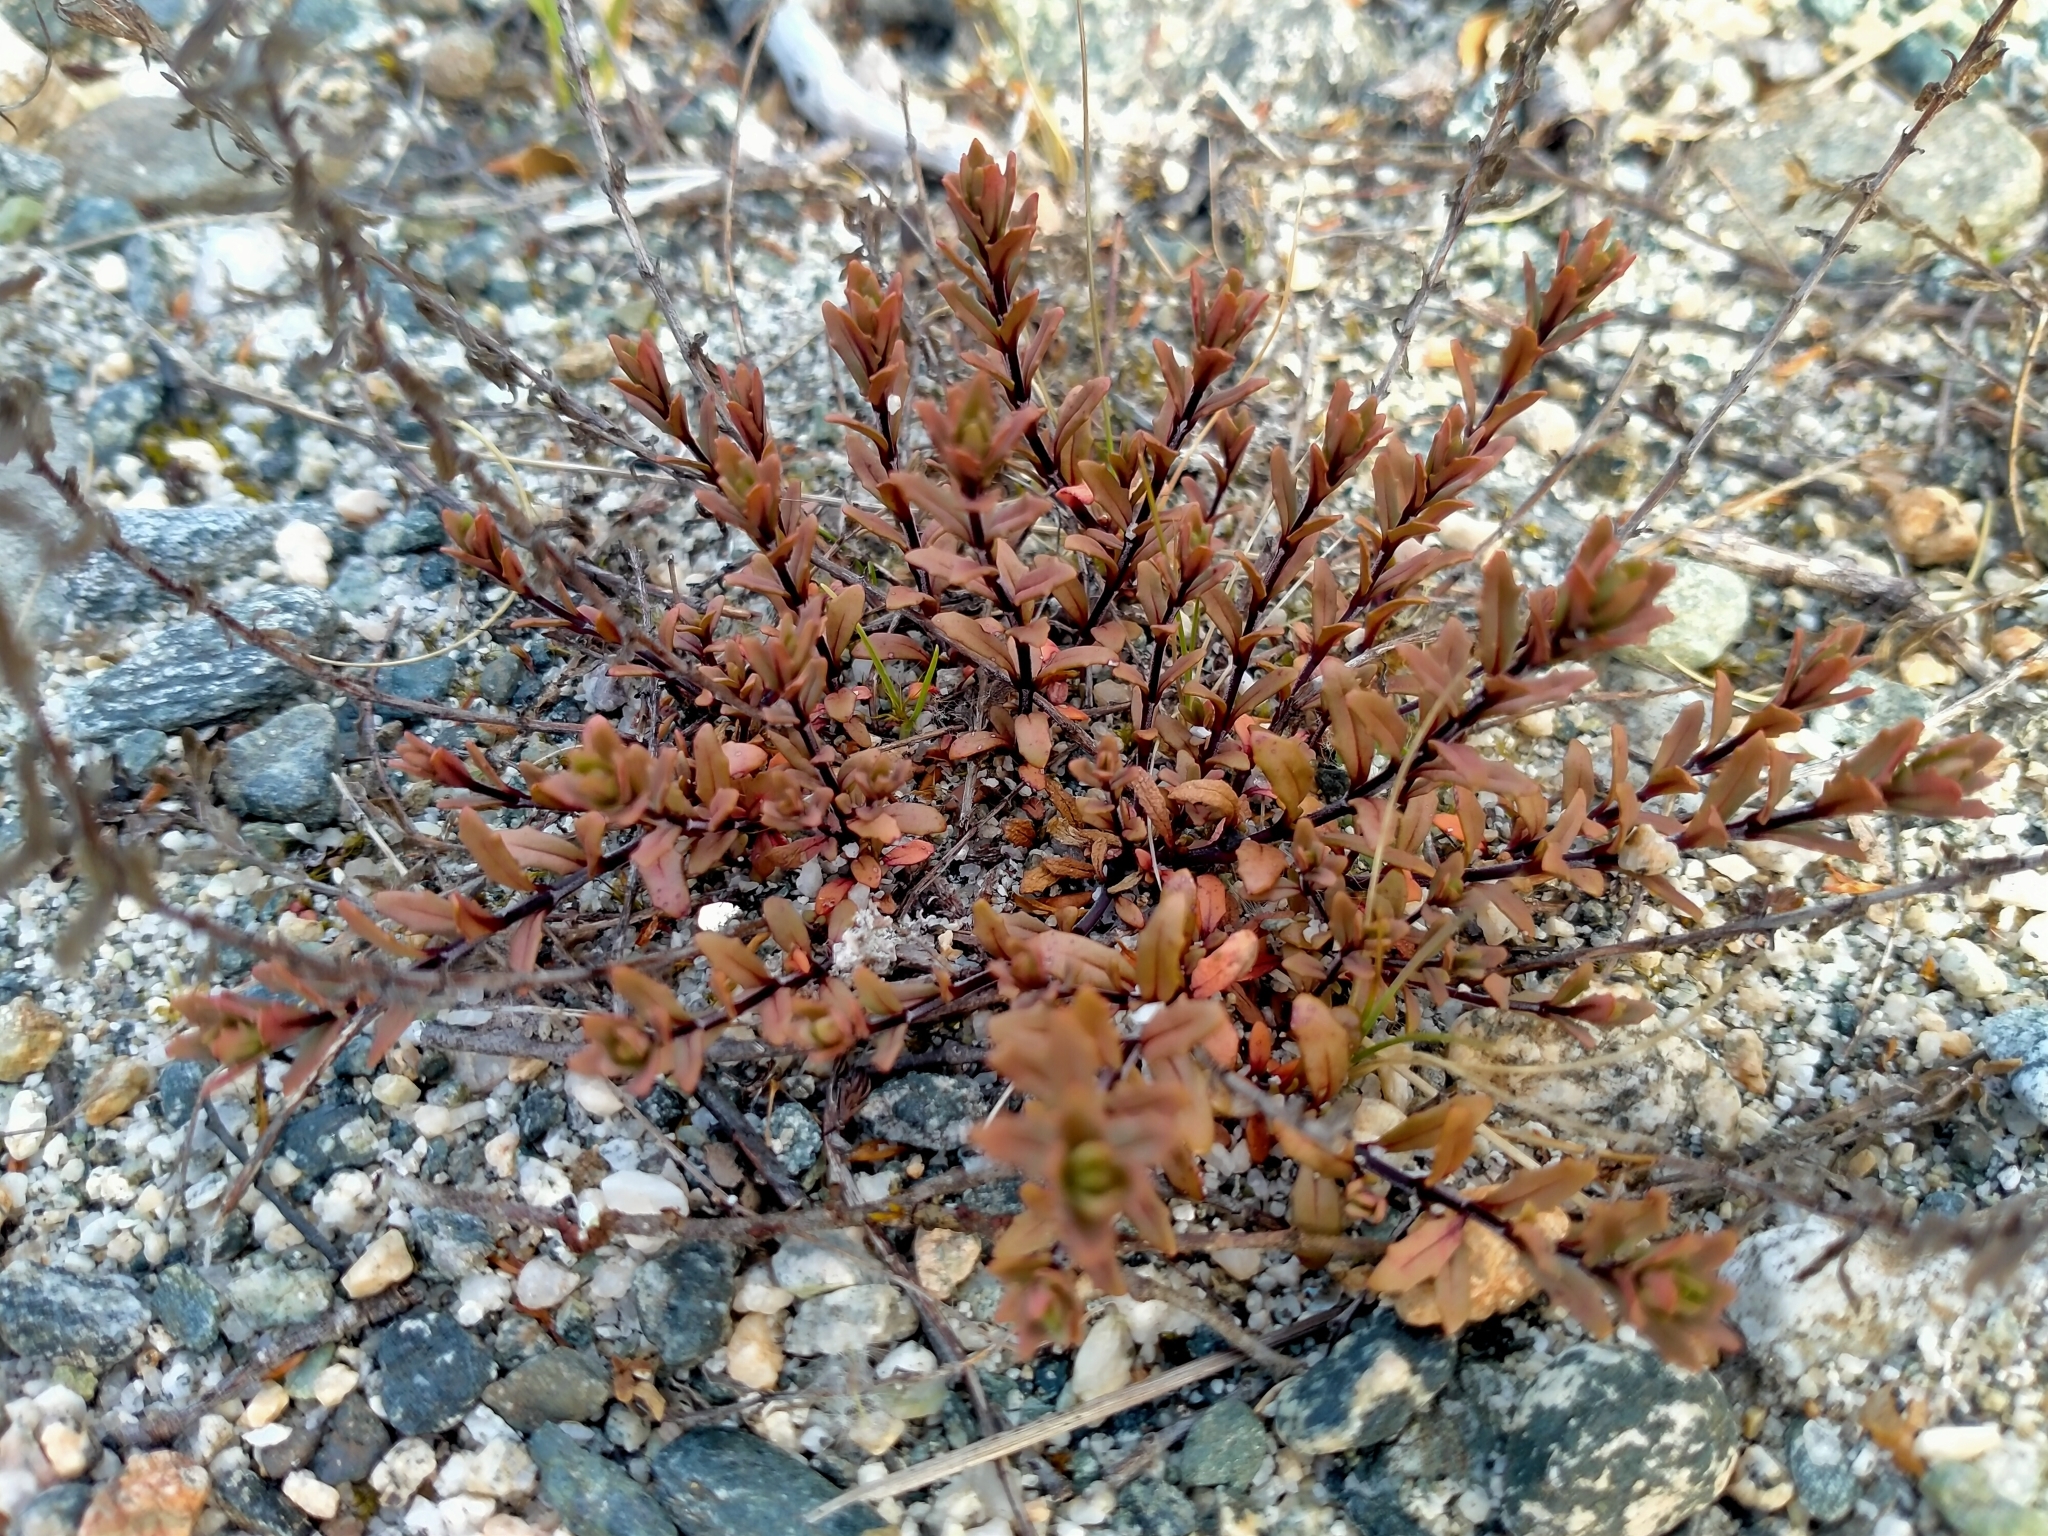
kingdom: Plantae
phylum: Tracheophyta
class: Magnoliopsida
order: Myrtales
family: Onagraceae
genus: Epilobium
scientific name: Epilobium melanocaulon
